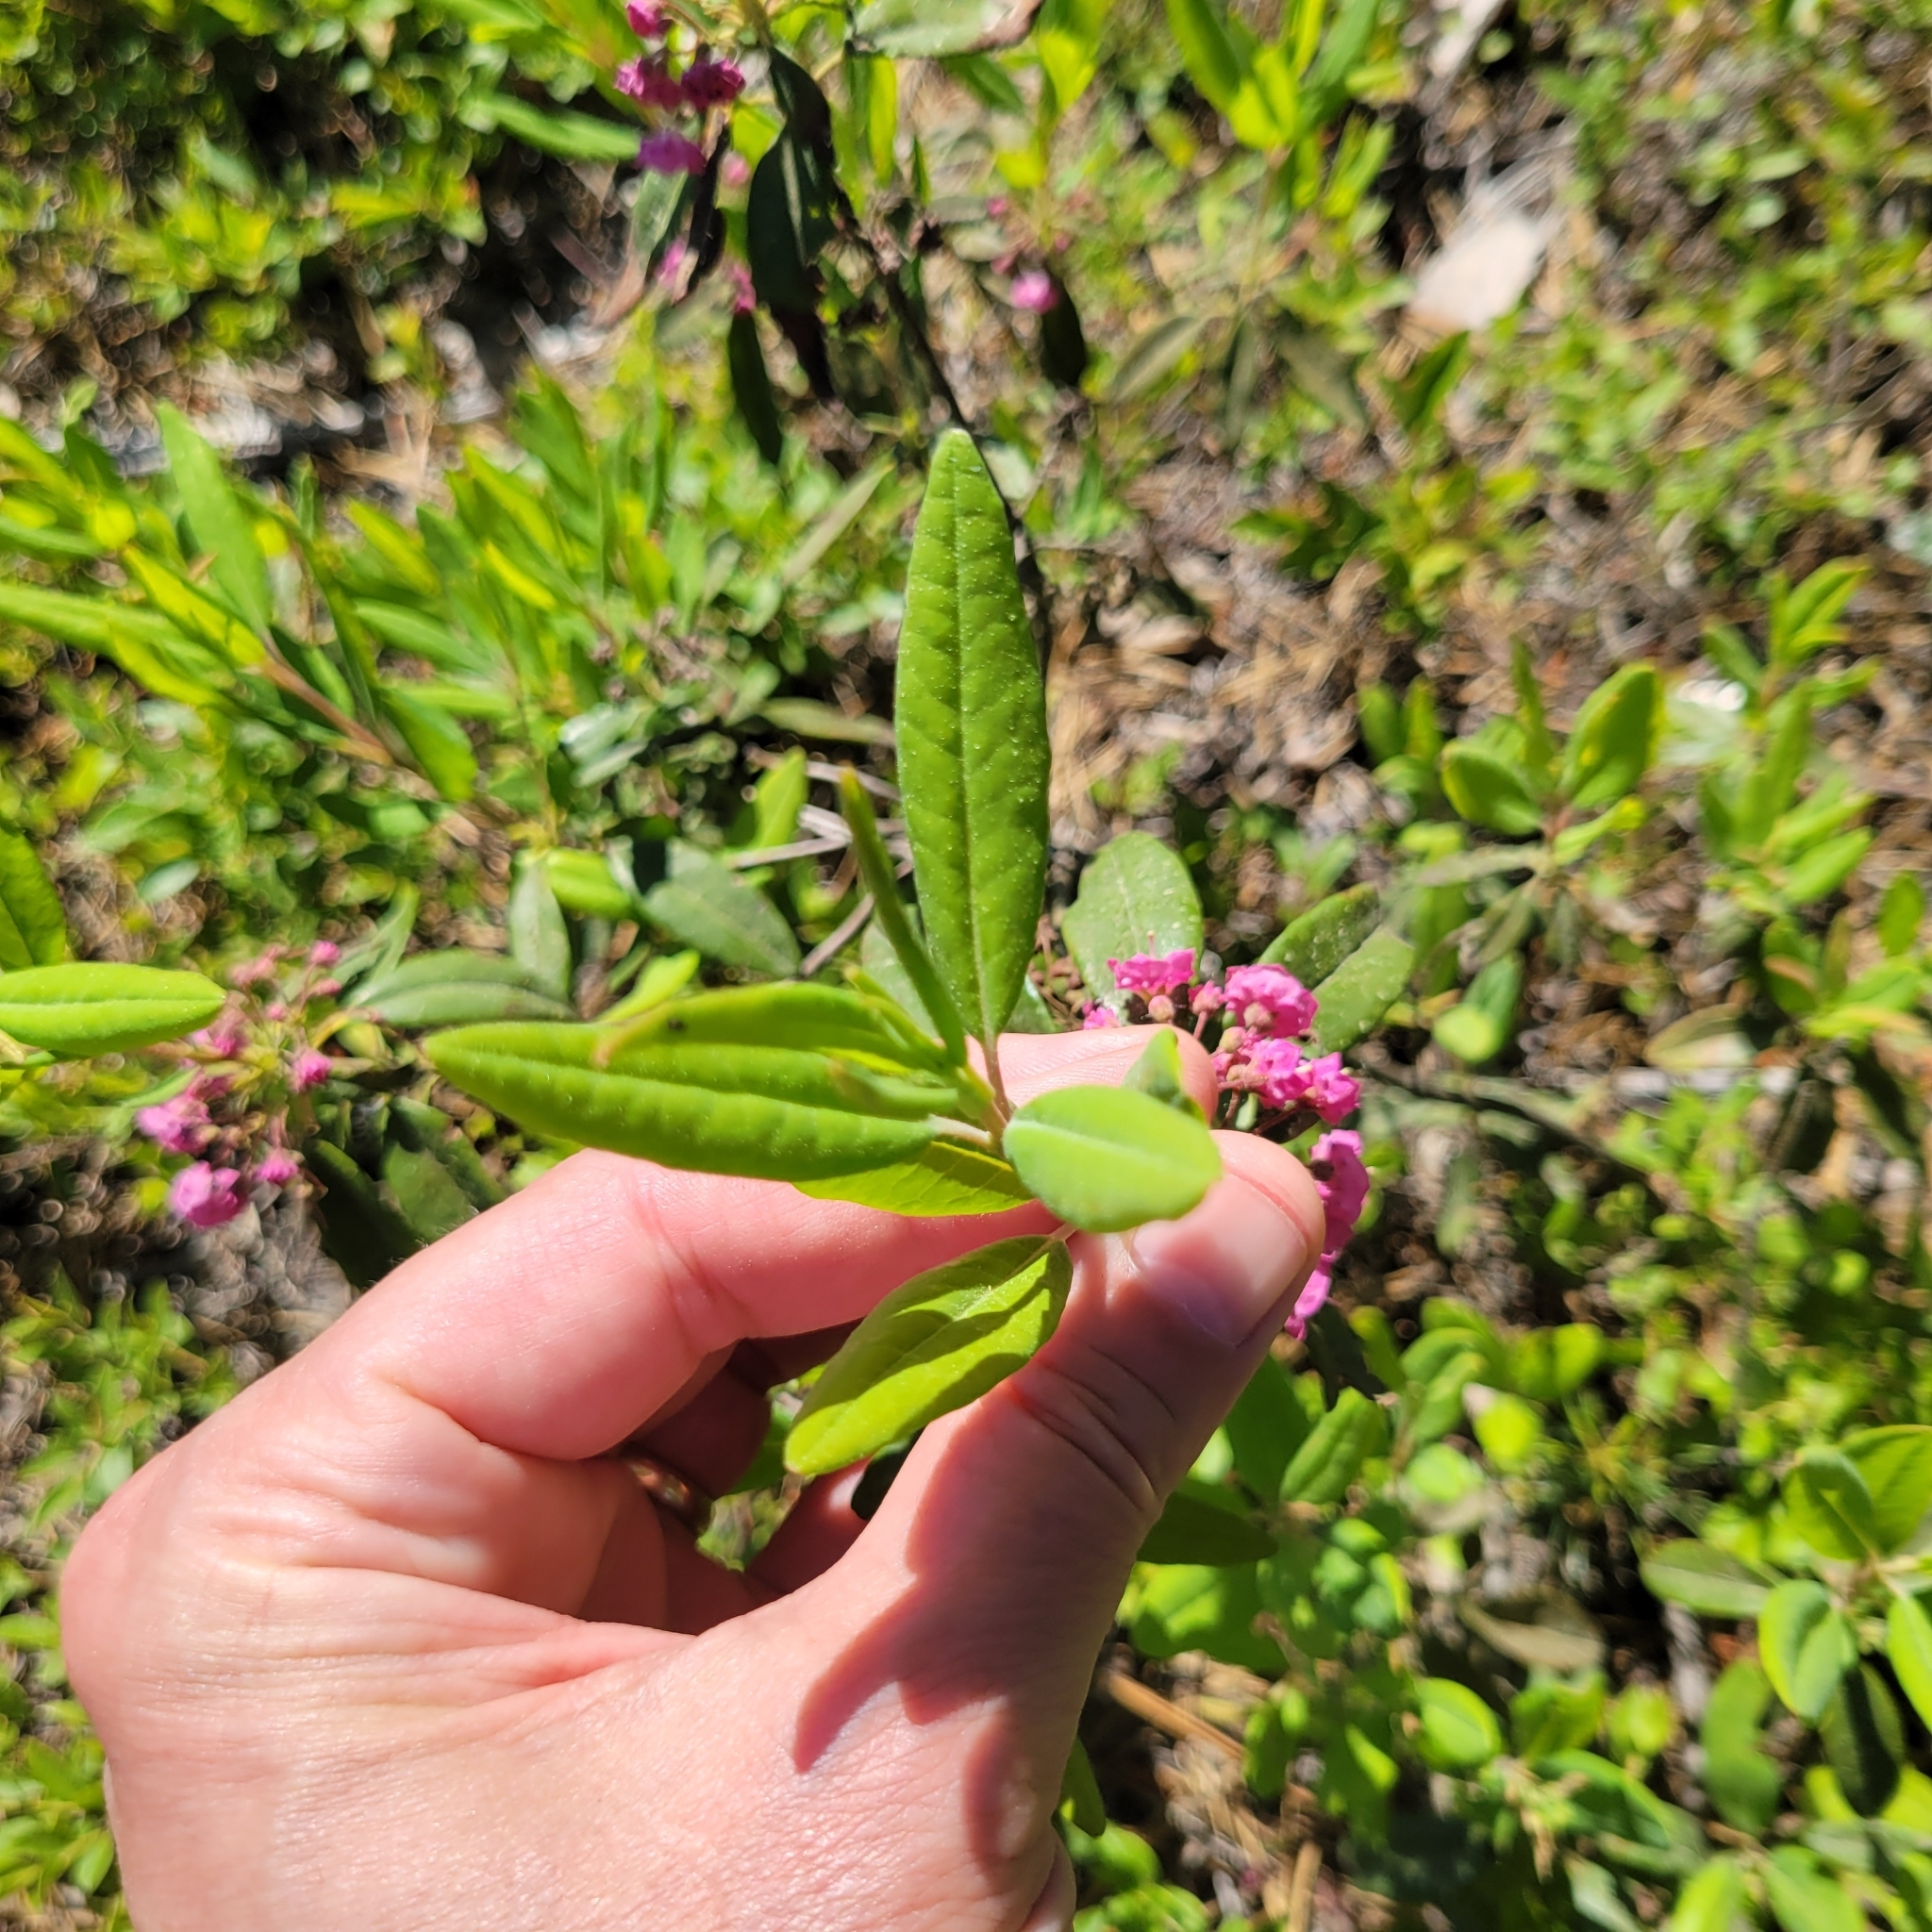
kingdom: Plantae
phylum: Tracheophyta
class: Magnoliopsida
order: Ericales
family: Ericaceae
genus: Kalmia
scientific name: Kalmia angustifolia
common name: Sheep-laurel
